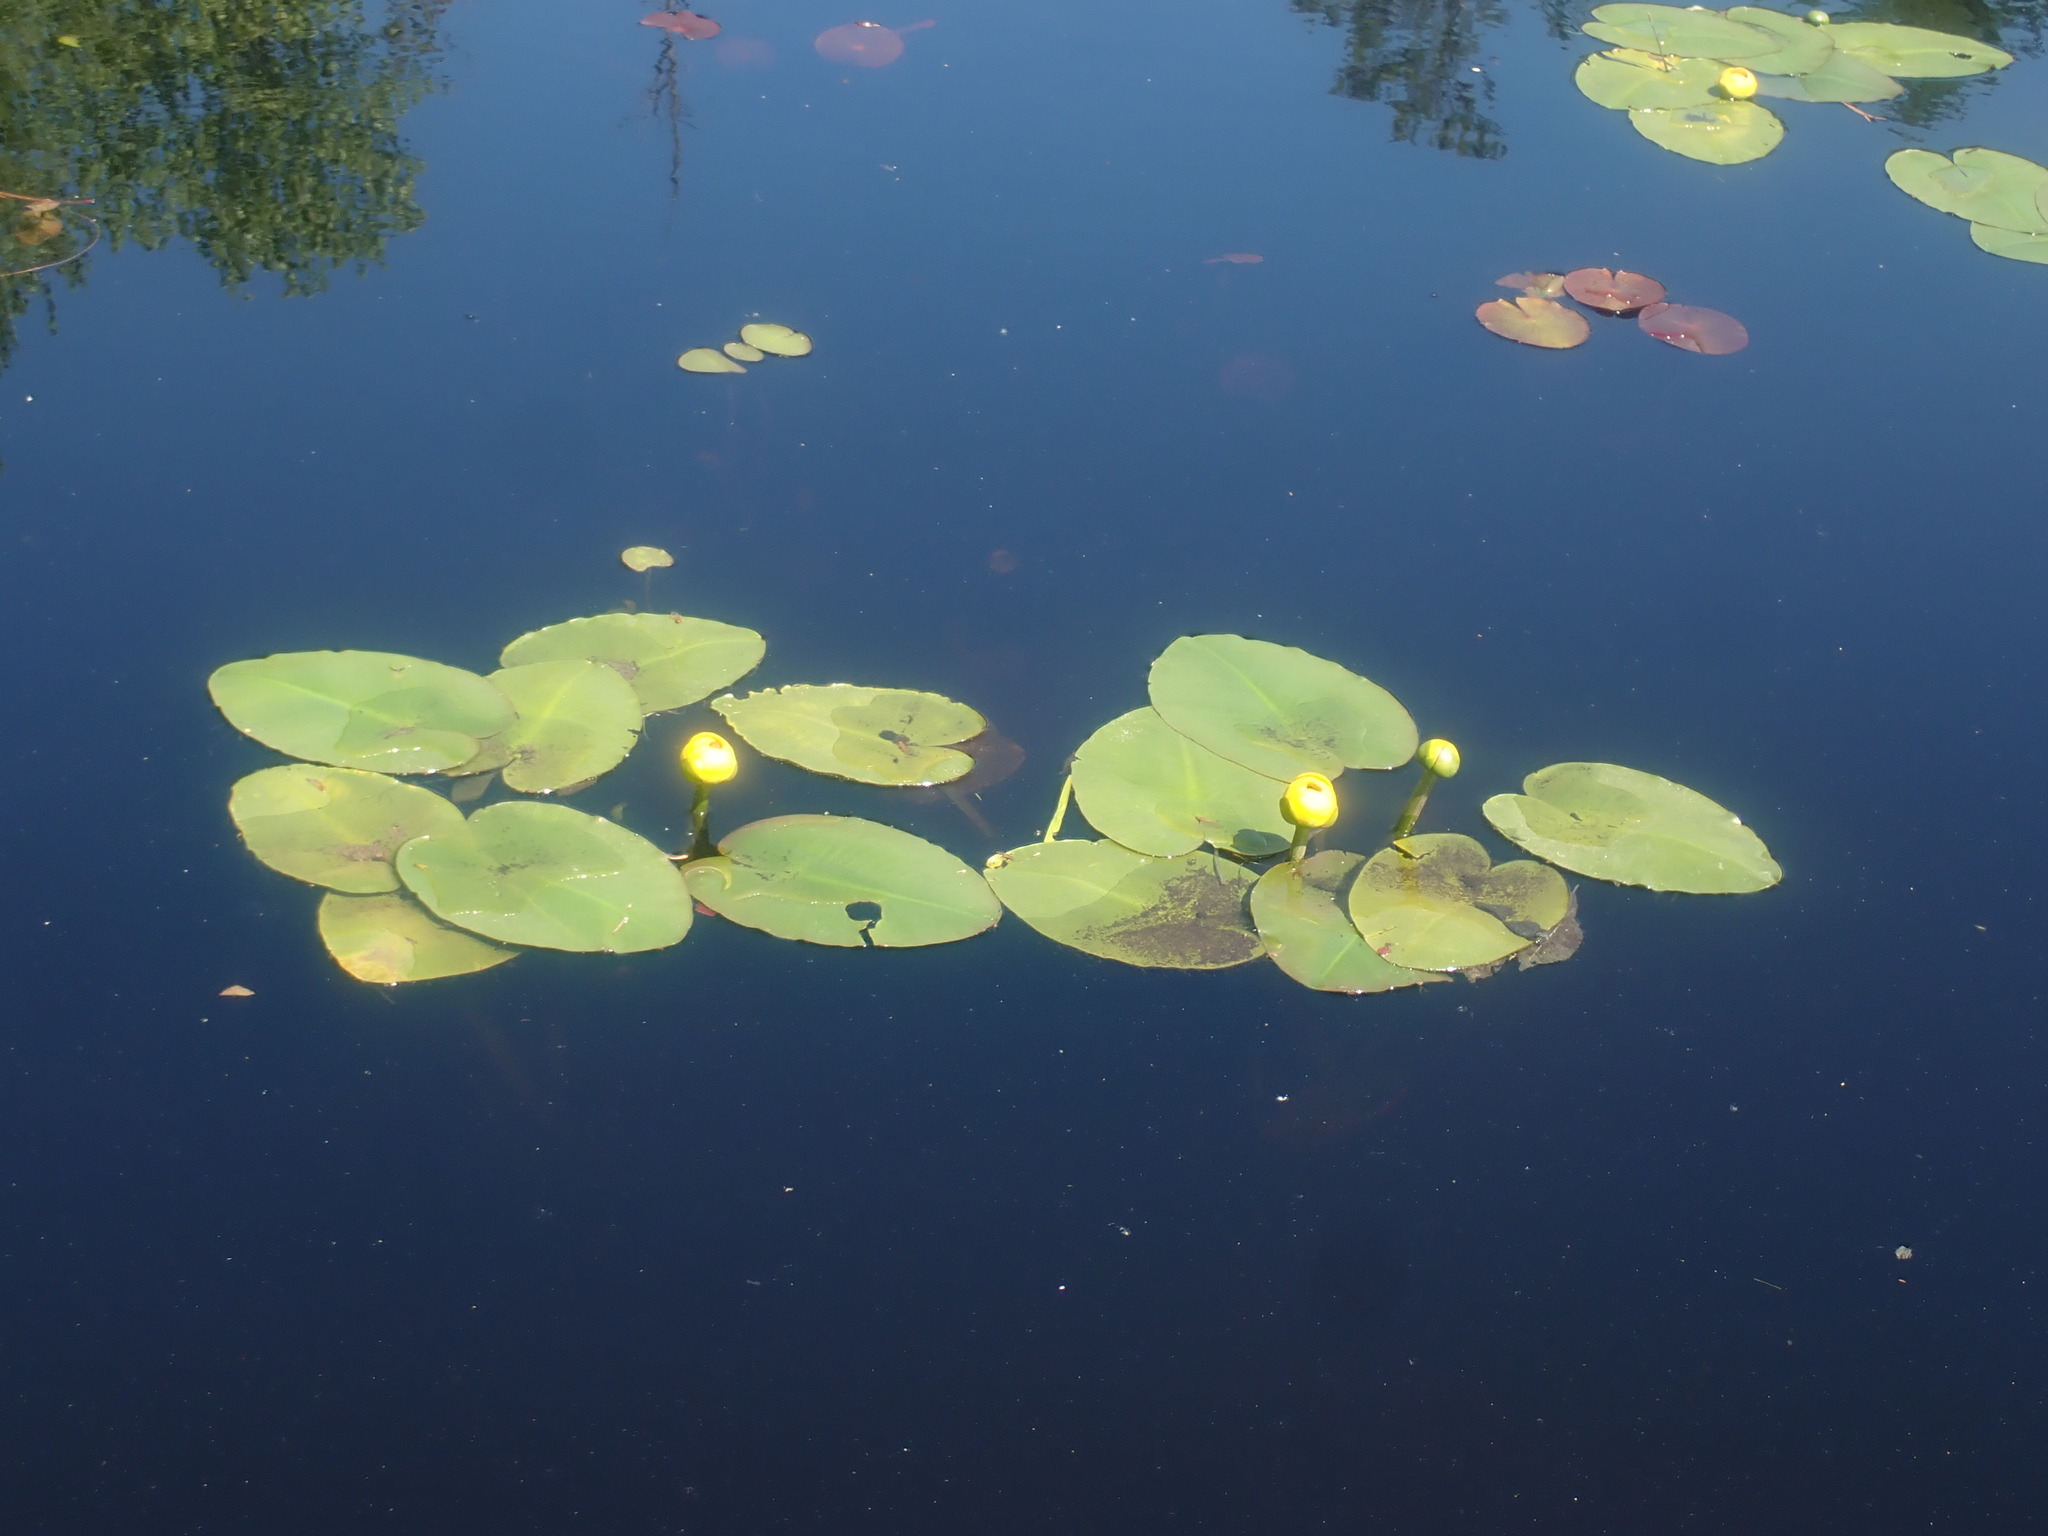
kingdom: Plantae
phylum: Tracheophyta
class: Magnoliopsida
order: Nymphaeales
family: Nymphaeaceae
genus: Nuphar
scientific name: Nuphar variegata
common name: Beaver-root
